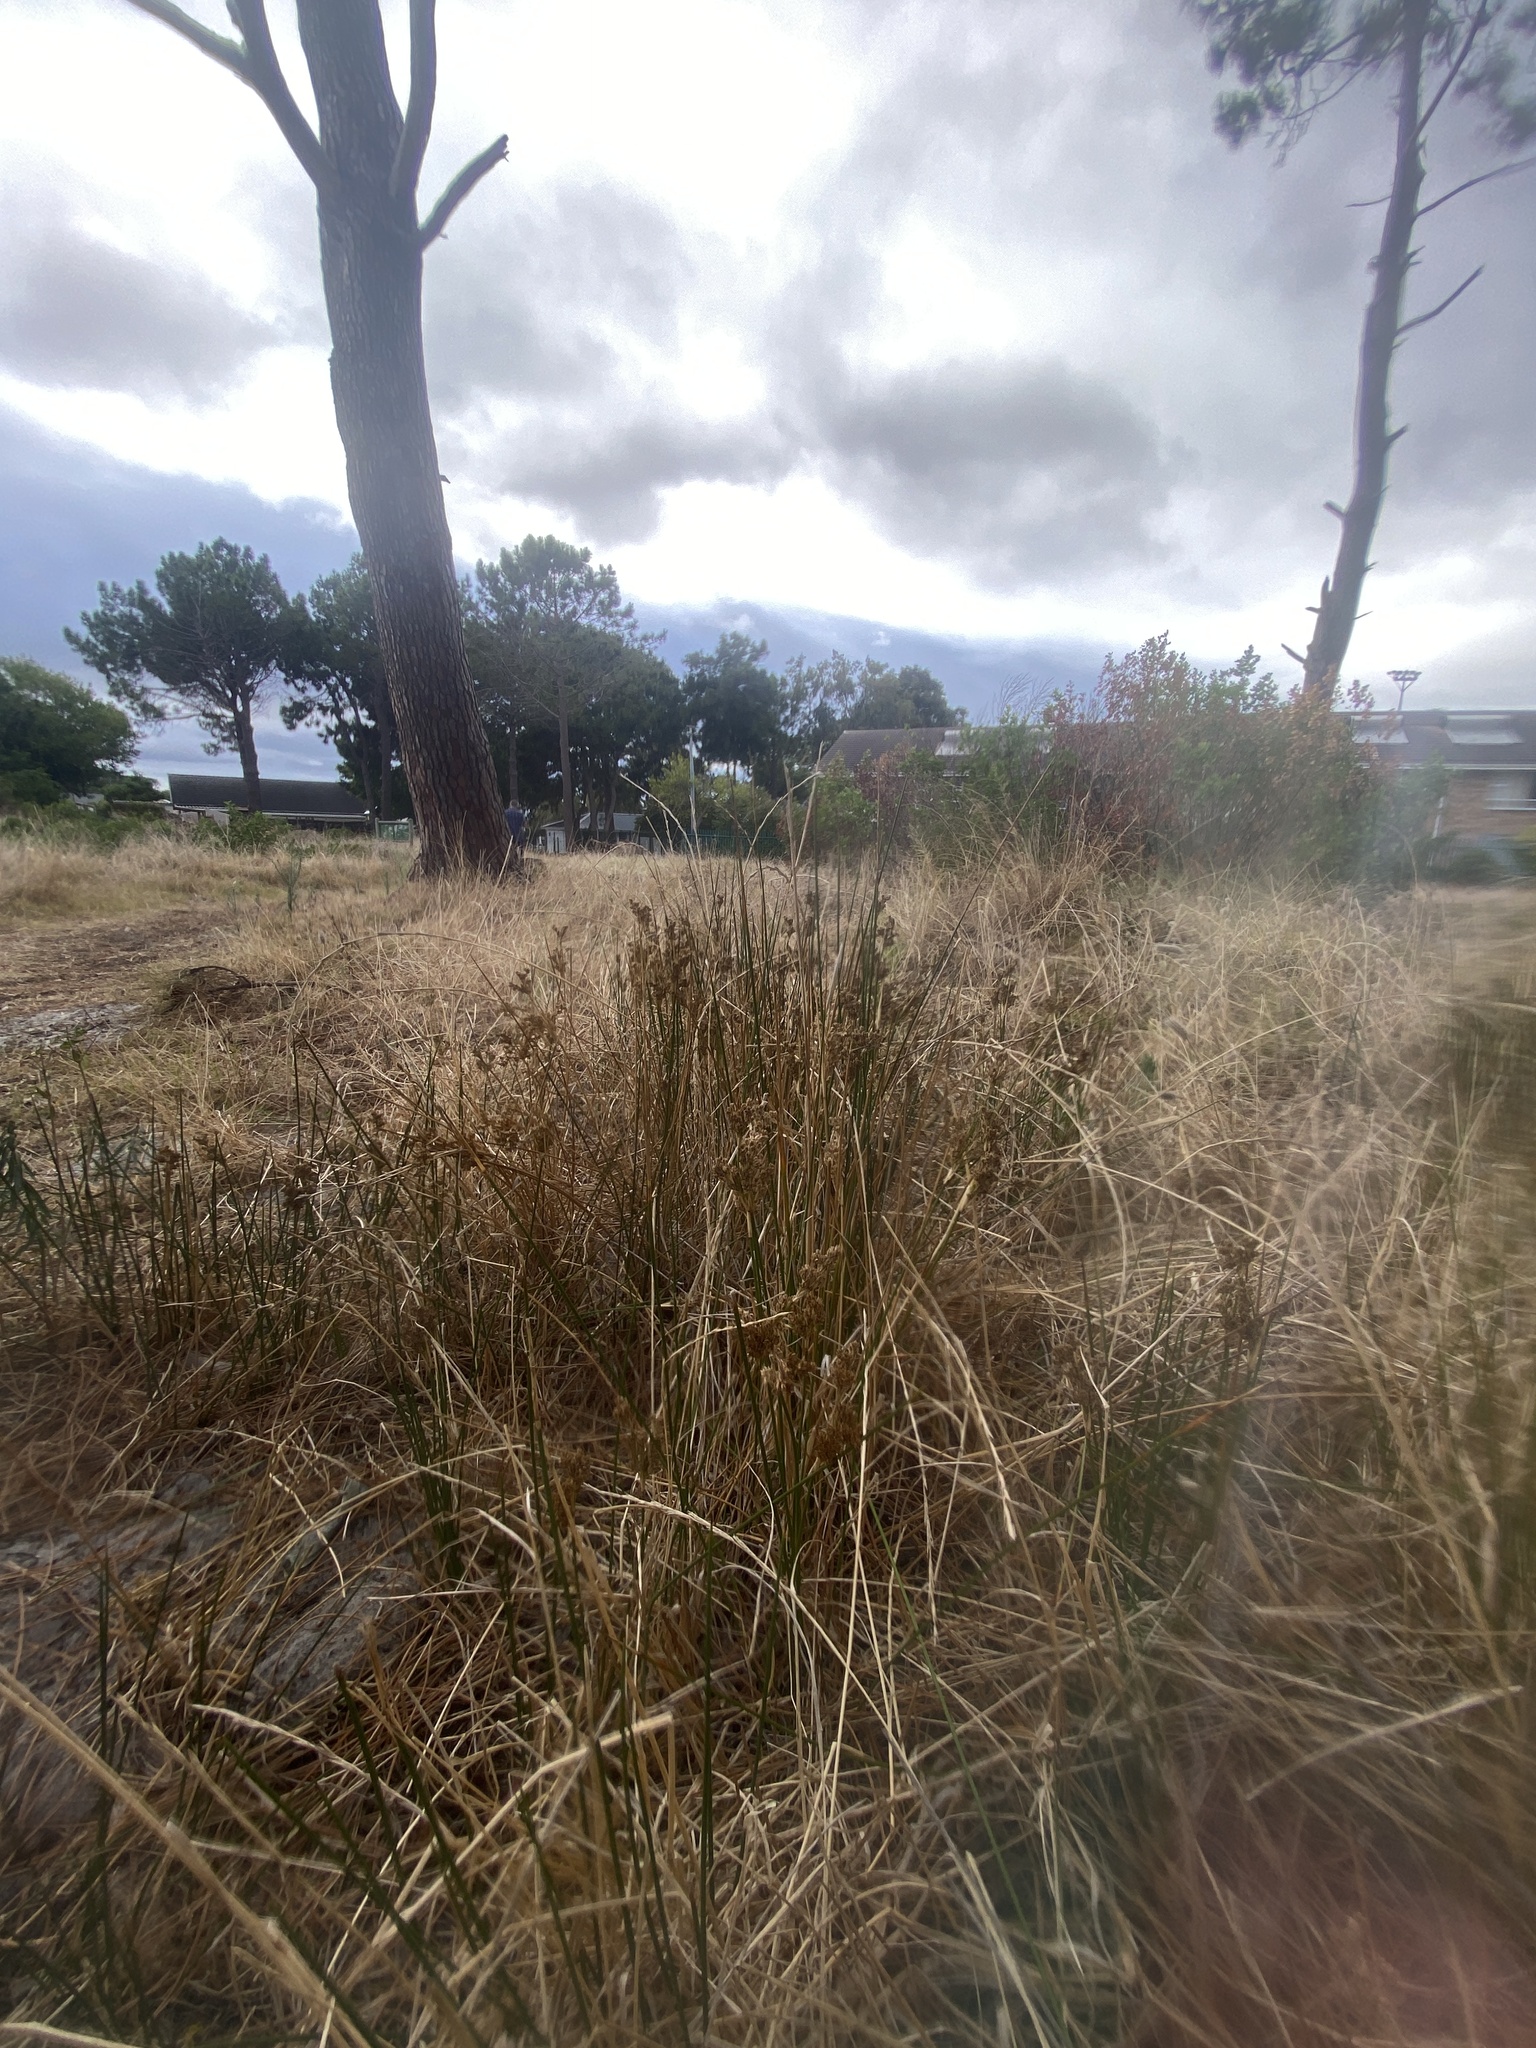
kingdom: Plantae
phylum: Tracheophyta
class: Liliopsida
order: Poales
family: Juncaceae
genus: Juncus
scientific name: Juncus kraussii
